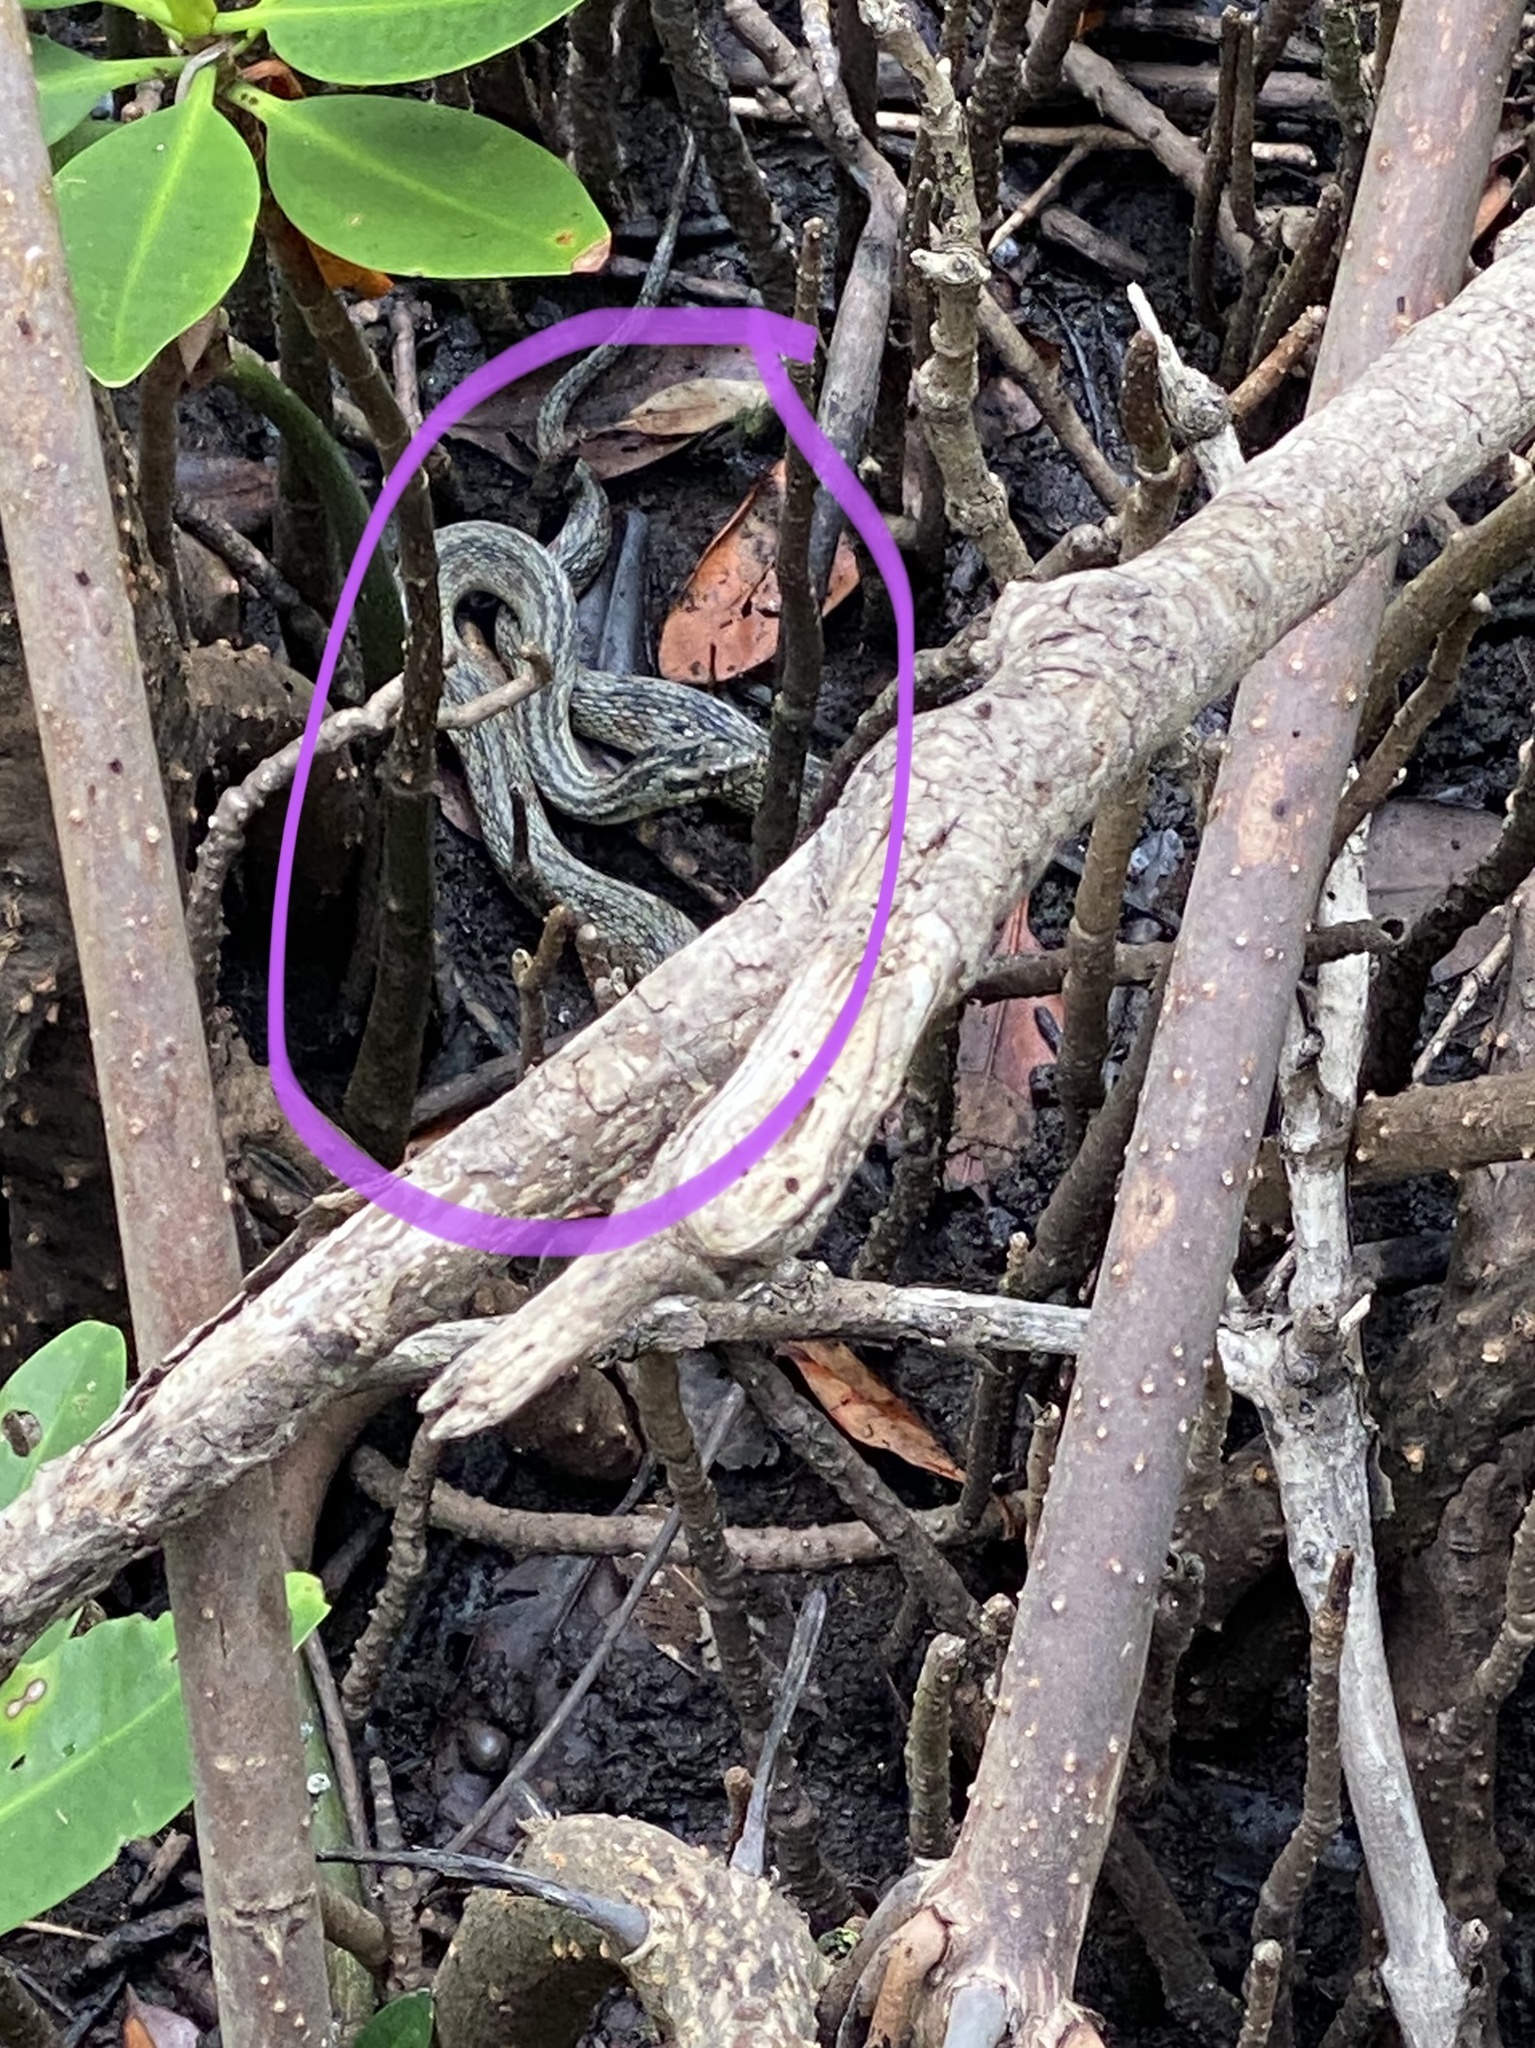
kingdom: Animalia
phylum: Chordata
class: Squamata
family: Colubridae
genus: Nerodia
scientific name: Nerodia clarkii
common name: Atlantic saltmarsh snake
